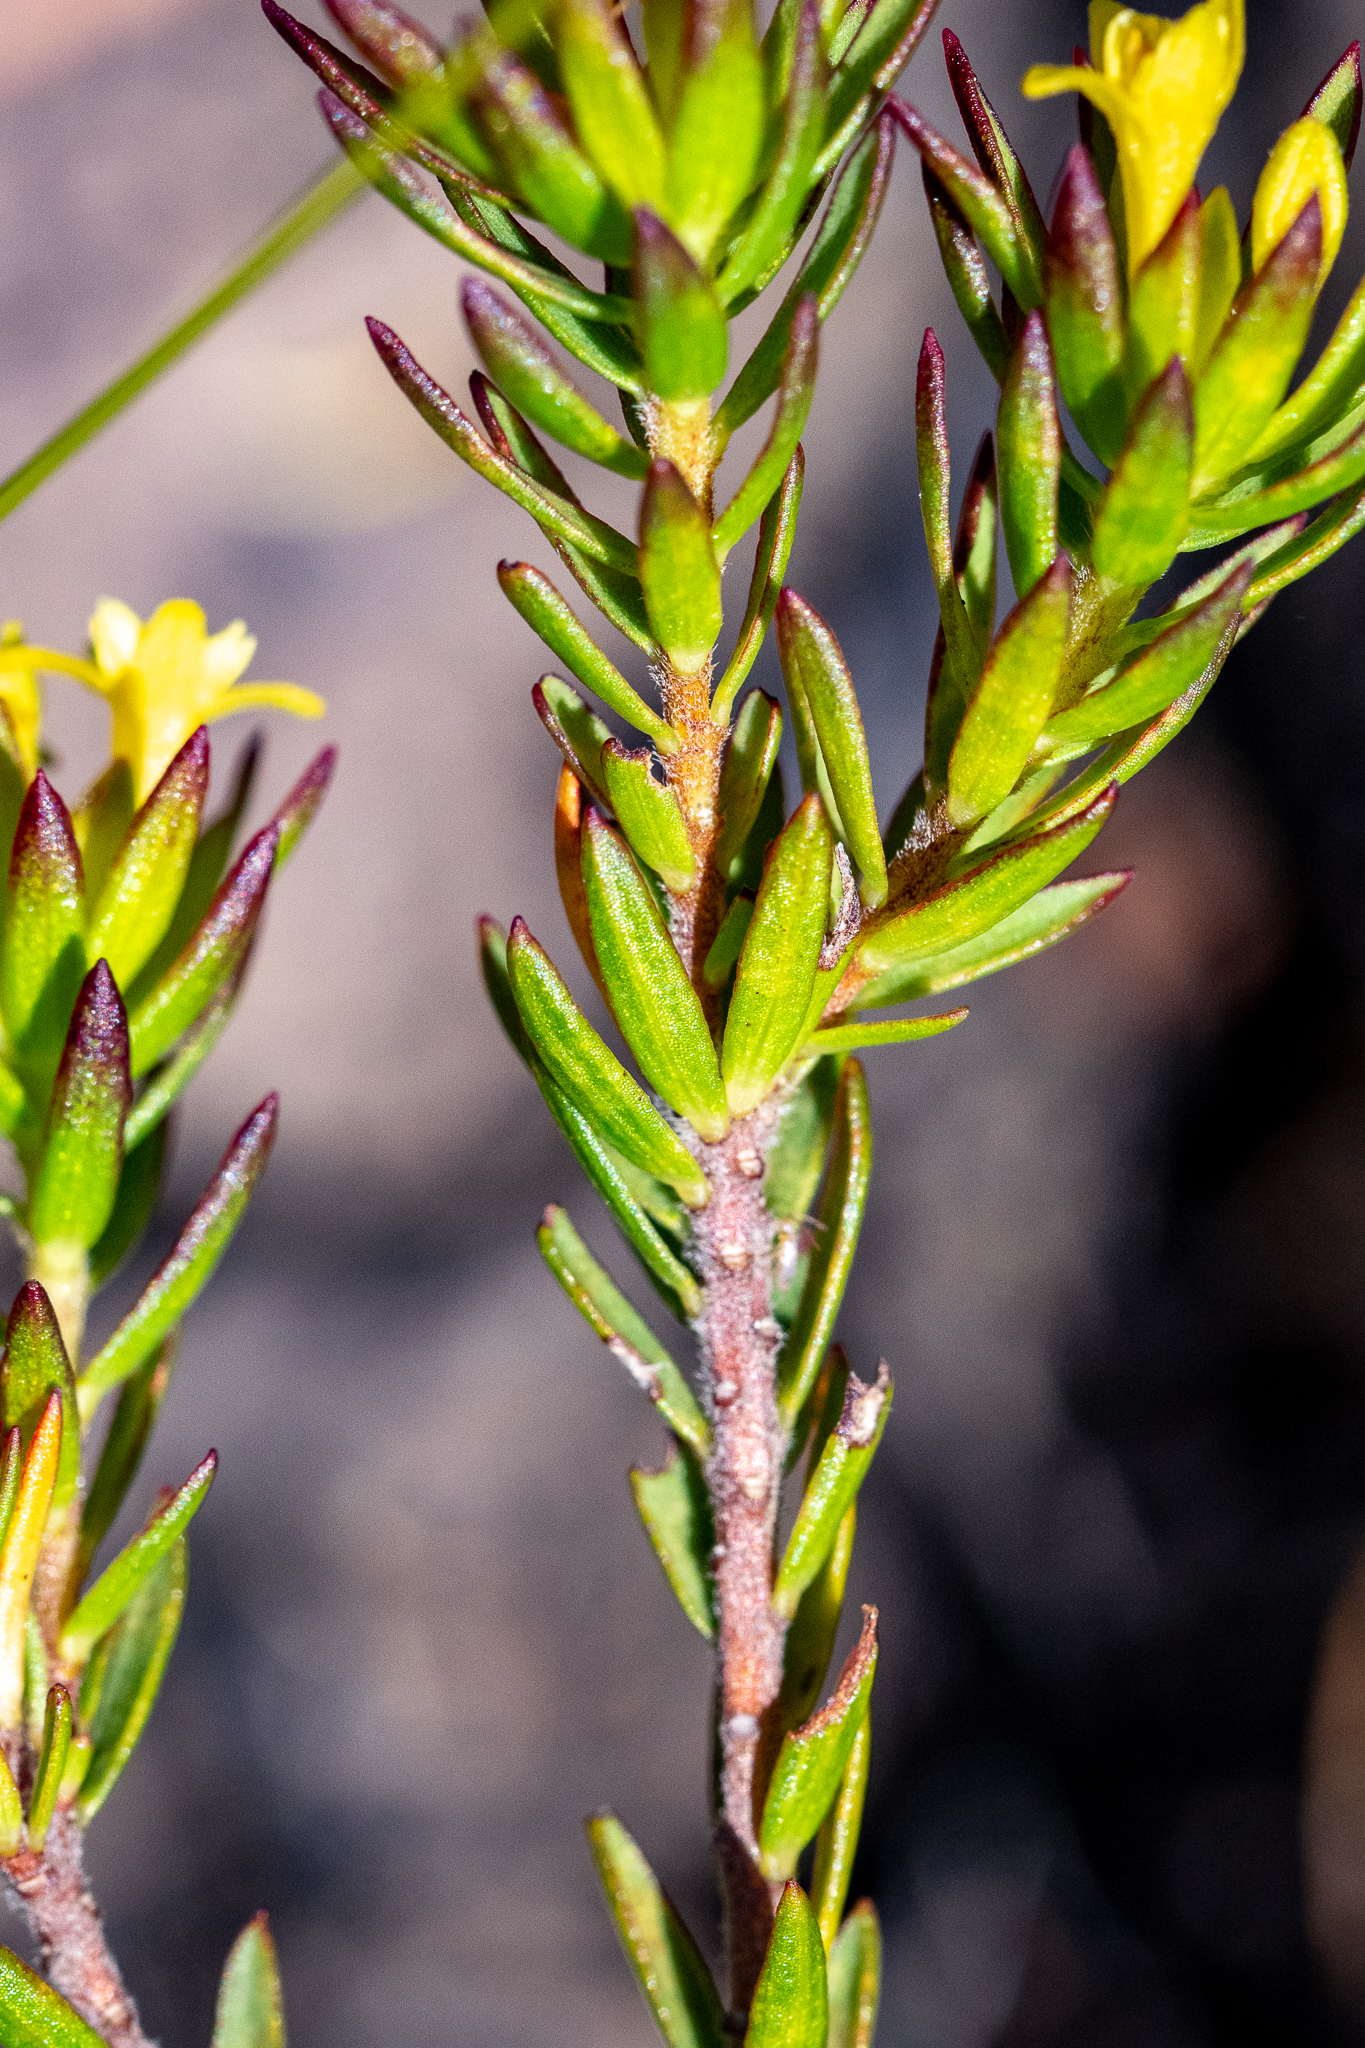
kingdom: Plantae
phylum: Tracheophyta
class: Magnoliopsida
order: Malvales
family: Thymelaeaceae
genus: Gnidia
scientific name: Gnidia juniperifolia
